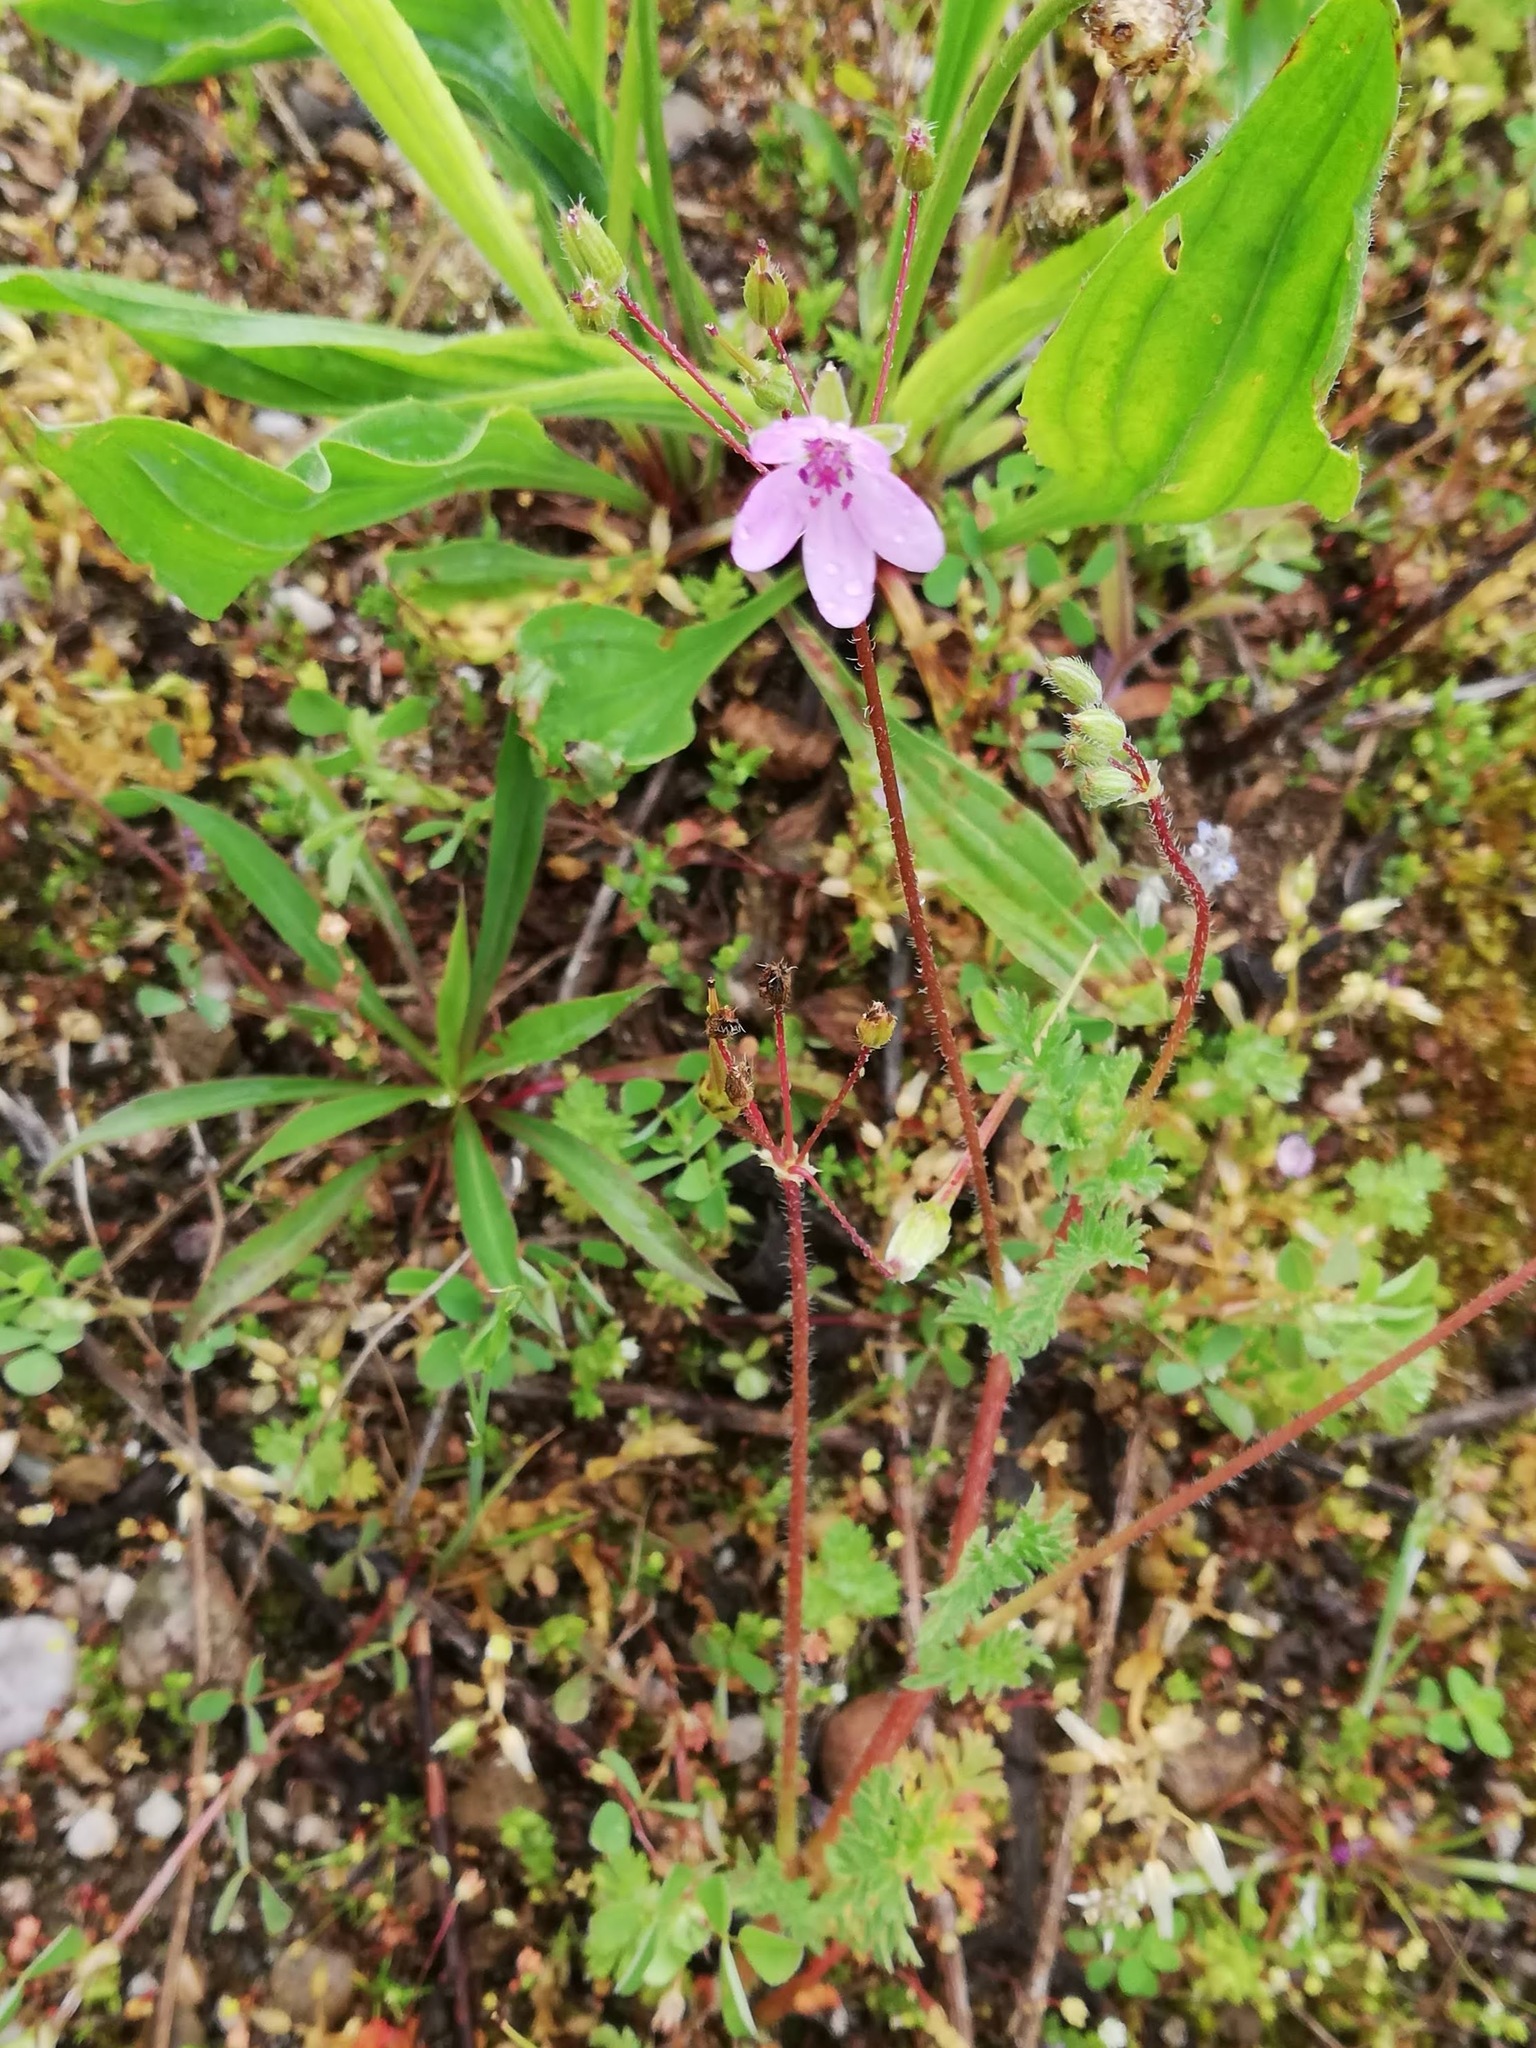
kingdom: Plantae
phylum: Tracheophyta
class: Magnoliopsida
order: Geraniales
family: Geraniaceae
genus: Erodium
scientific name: Erodium cicutarium
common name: Common stork's-bill
